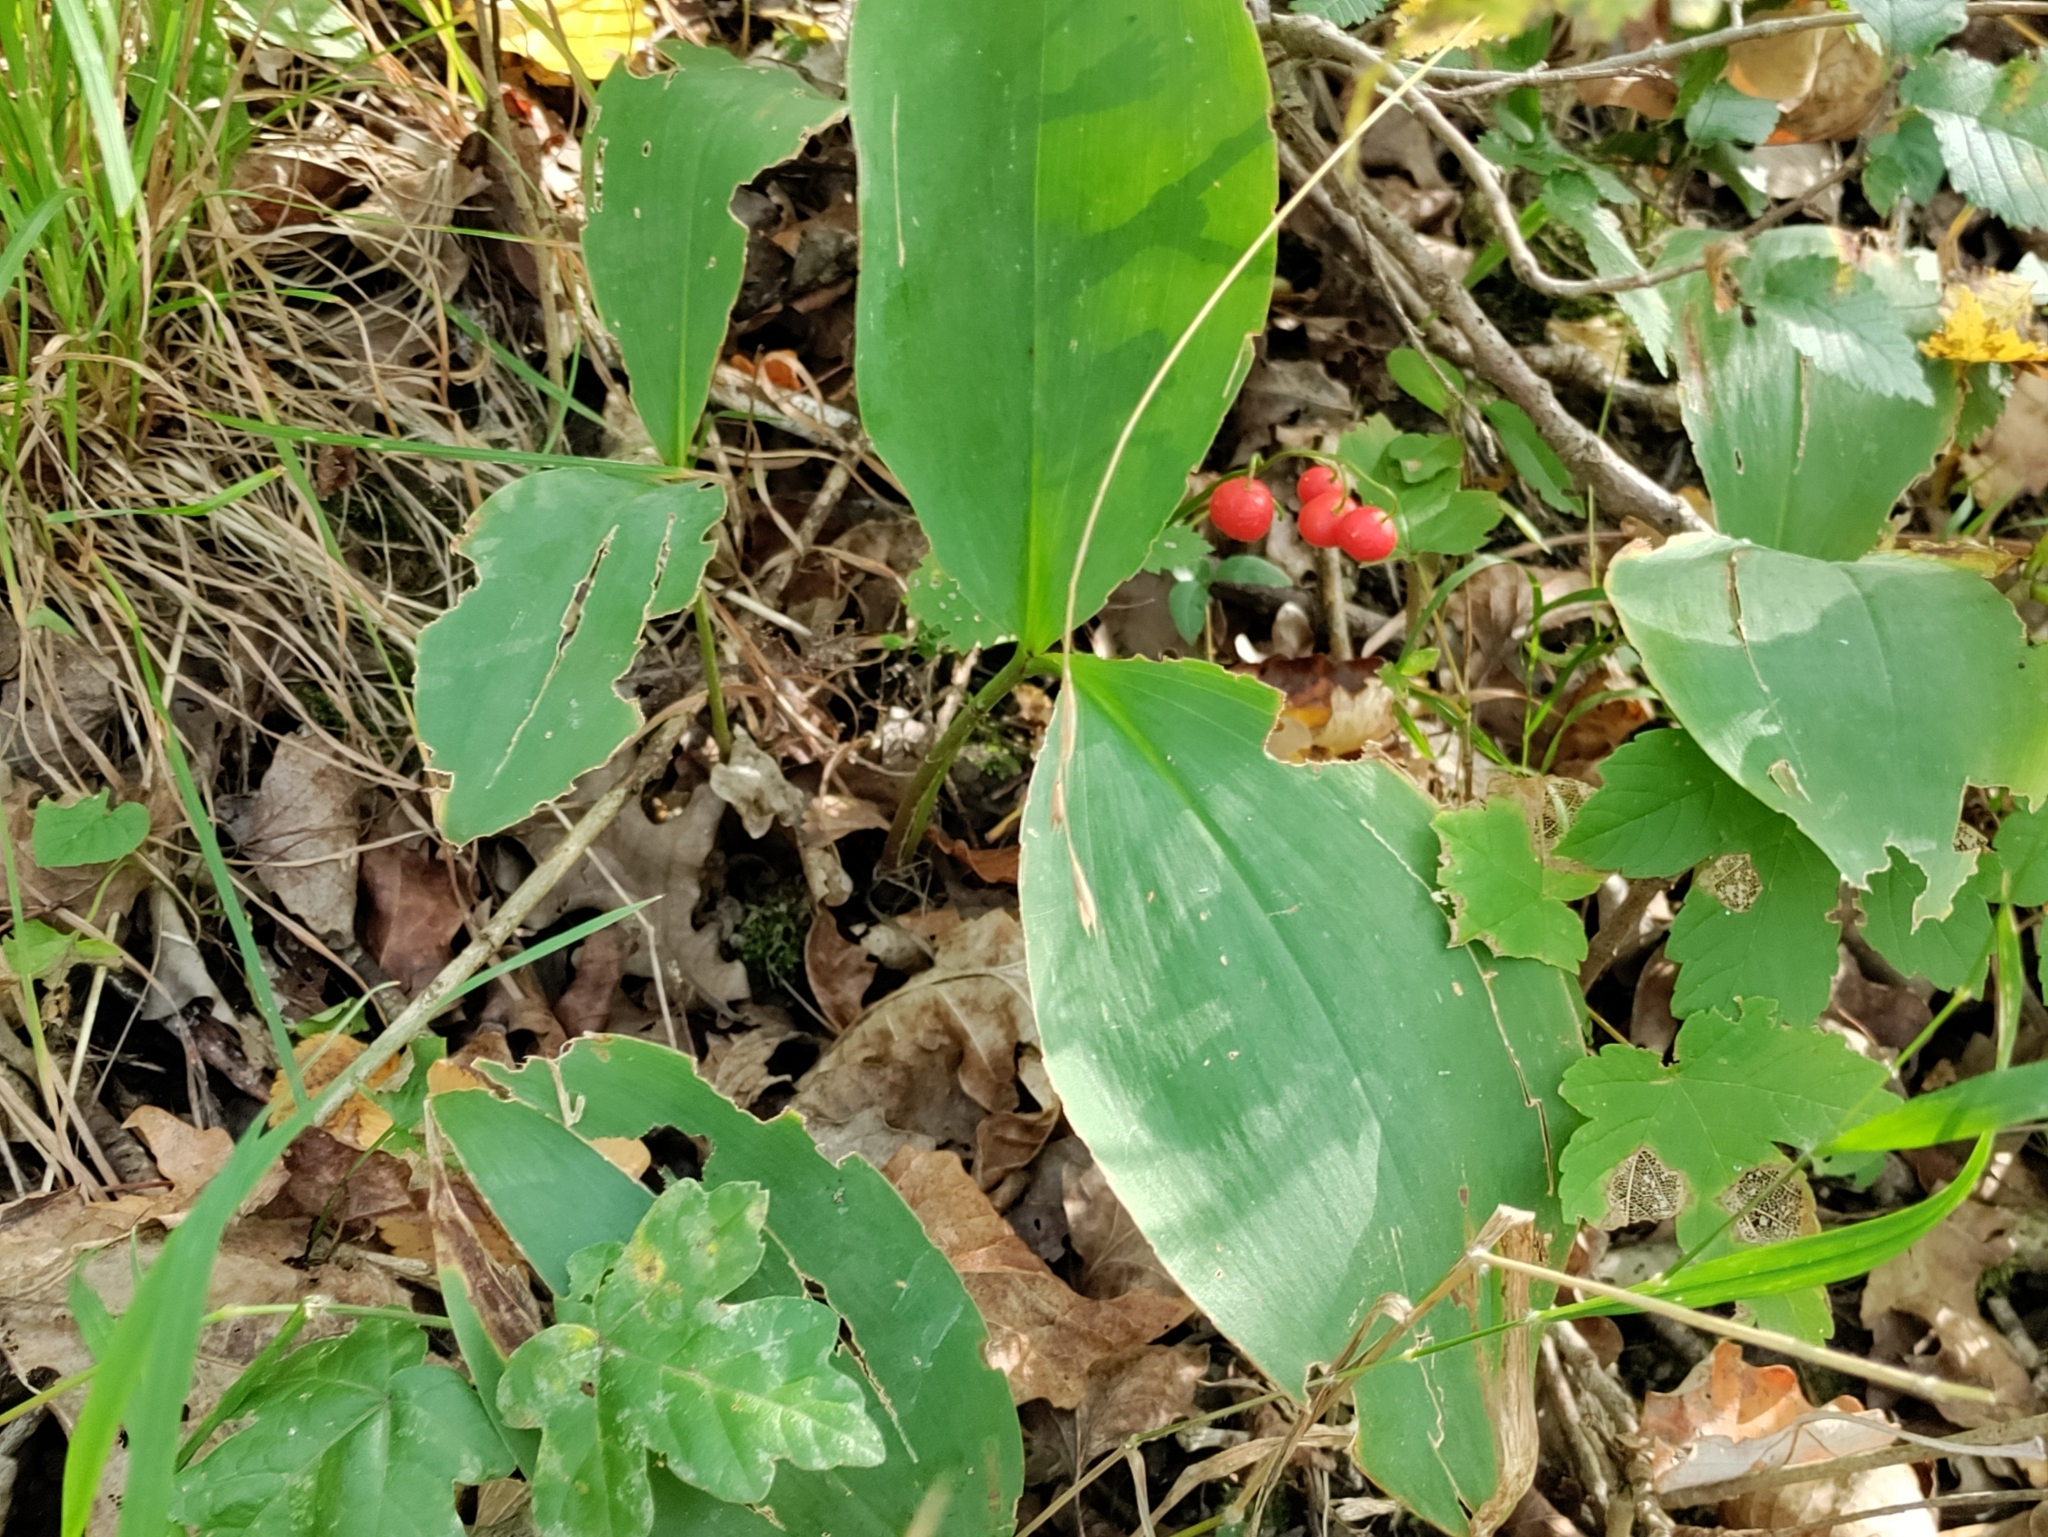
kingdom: Plantae
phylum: Tracheophyta
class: Liliopsida
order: Asparagales
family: Asparagaceae
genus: Convallaria
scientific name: Convallaria majalis
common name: Lily-of-the-valley
